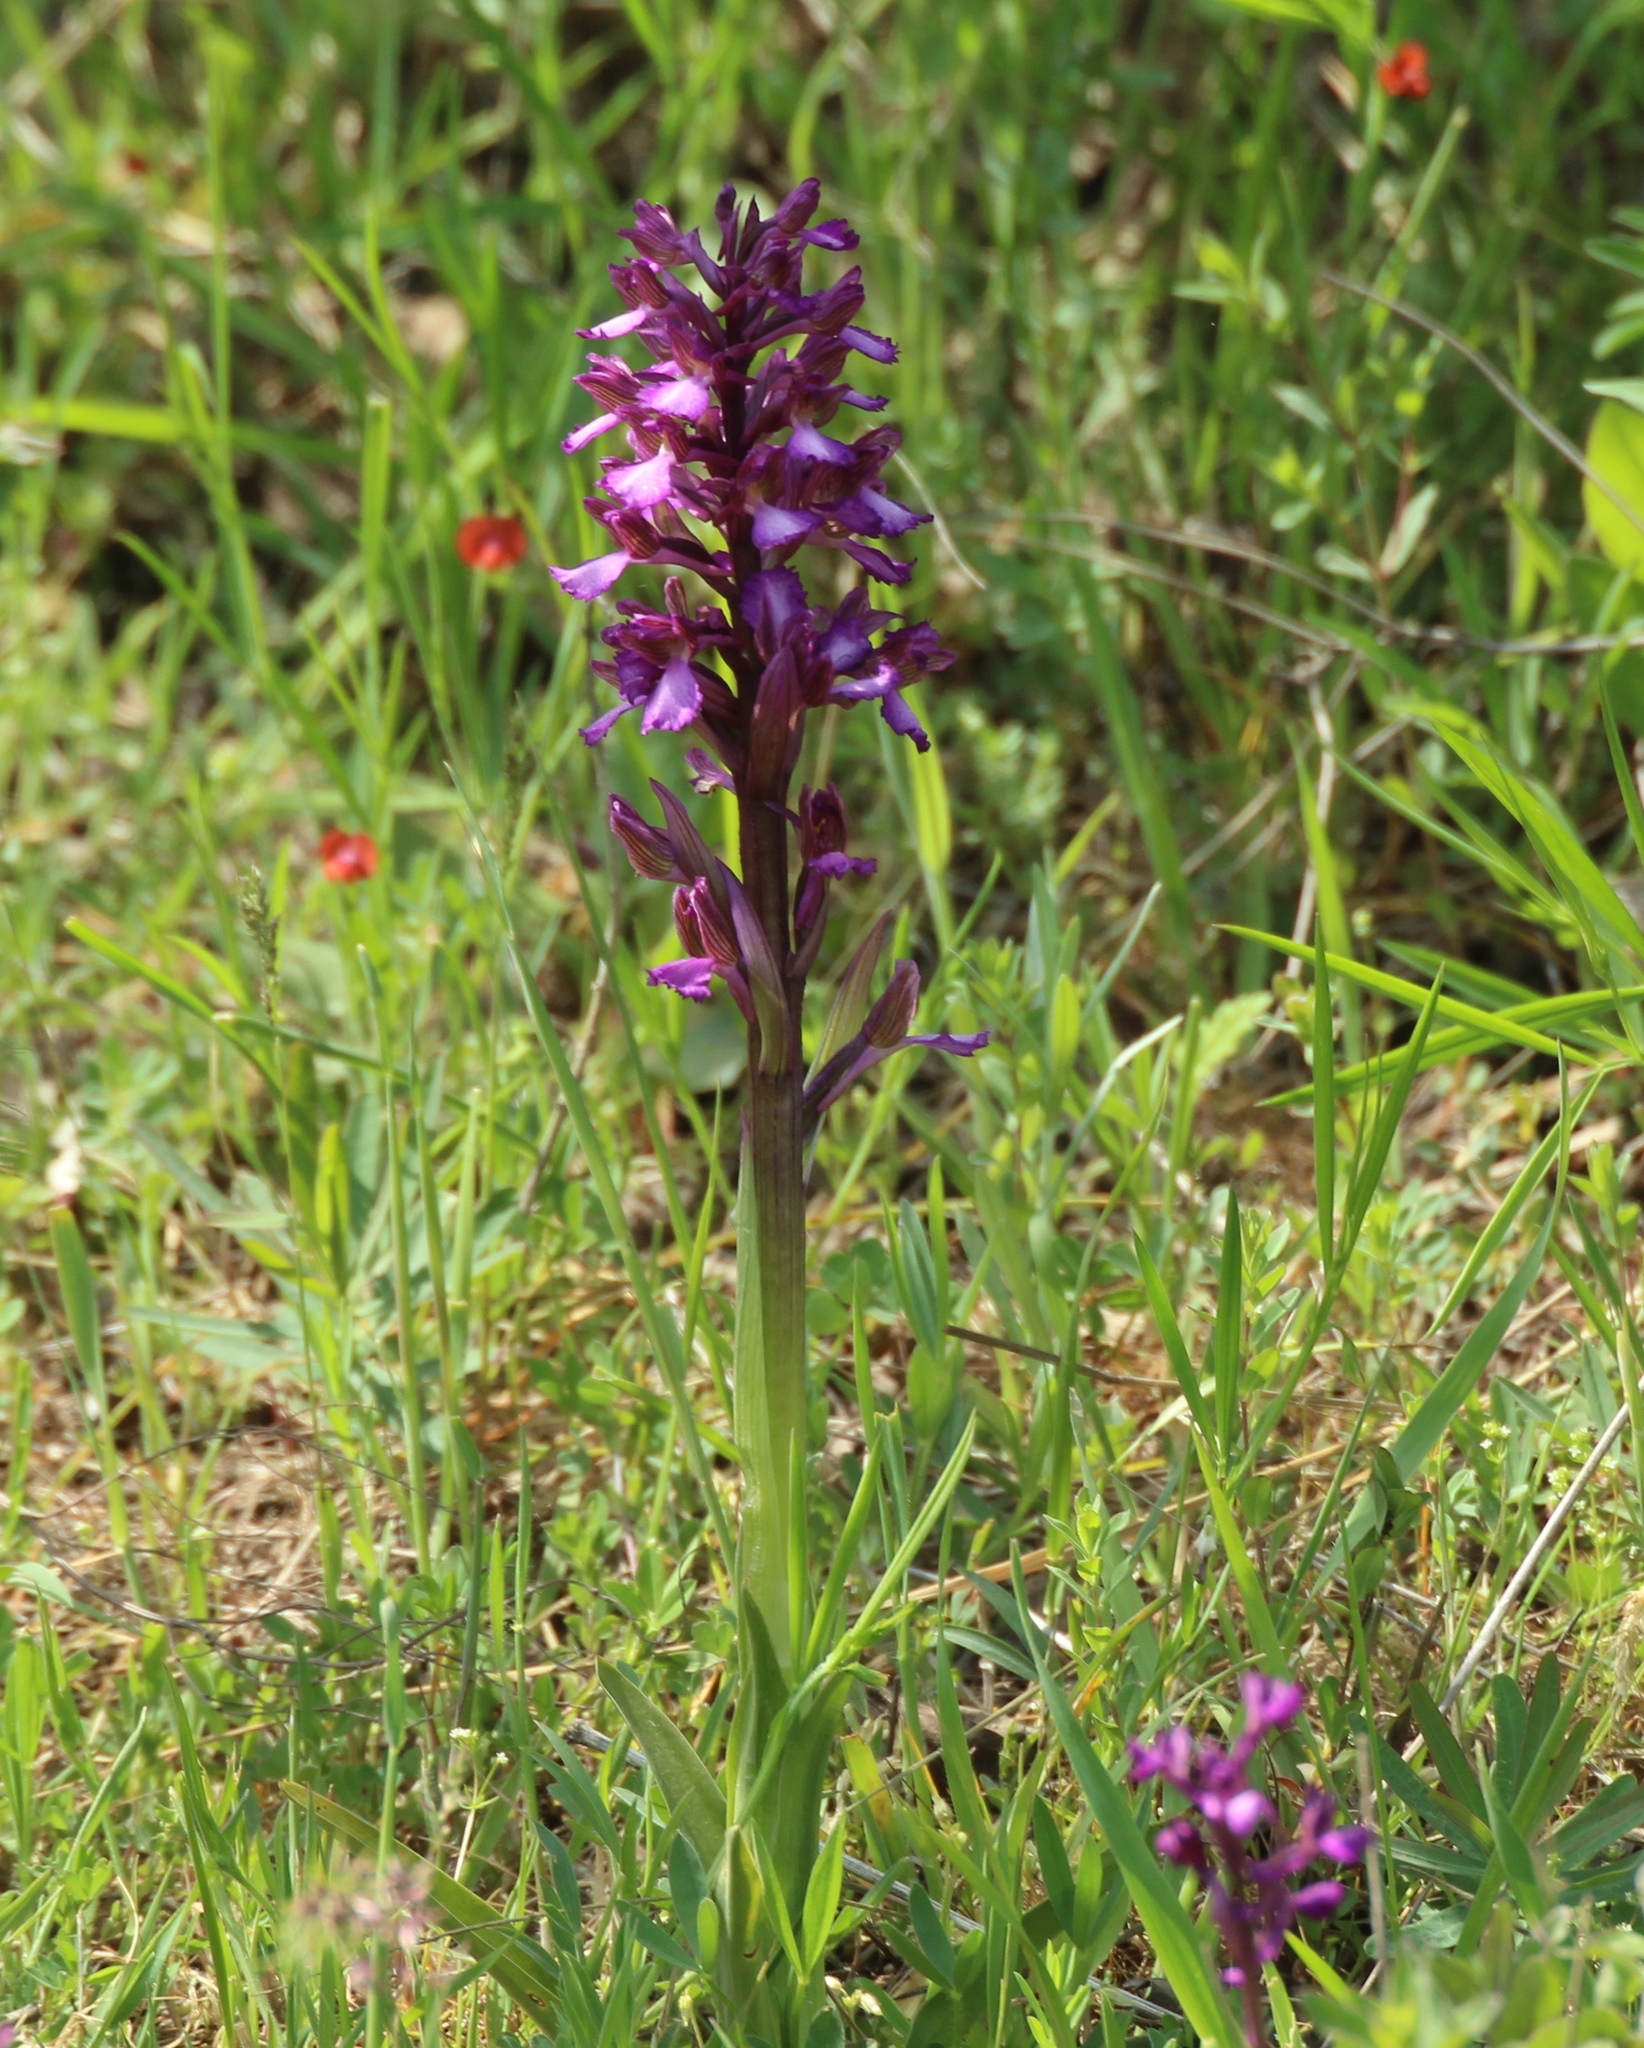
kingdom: Plantae
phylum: Tracheophyta
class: Liliopsida
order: Asparagales
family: Orchidaceae
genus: Anacamptis
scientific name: Anacamptis morio
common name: Green-winged orchid
